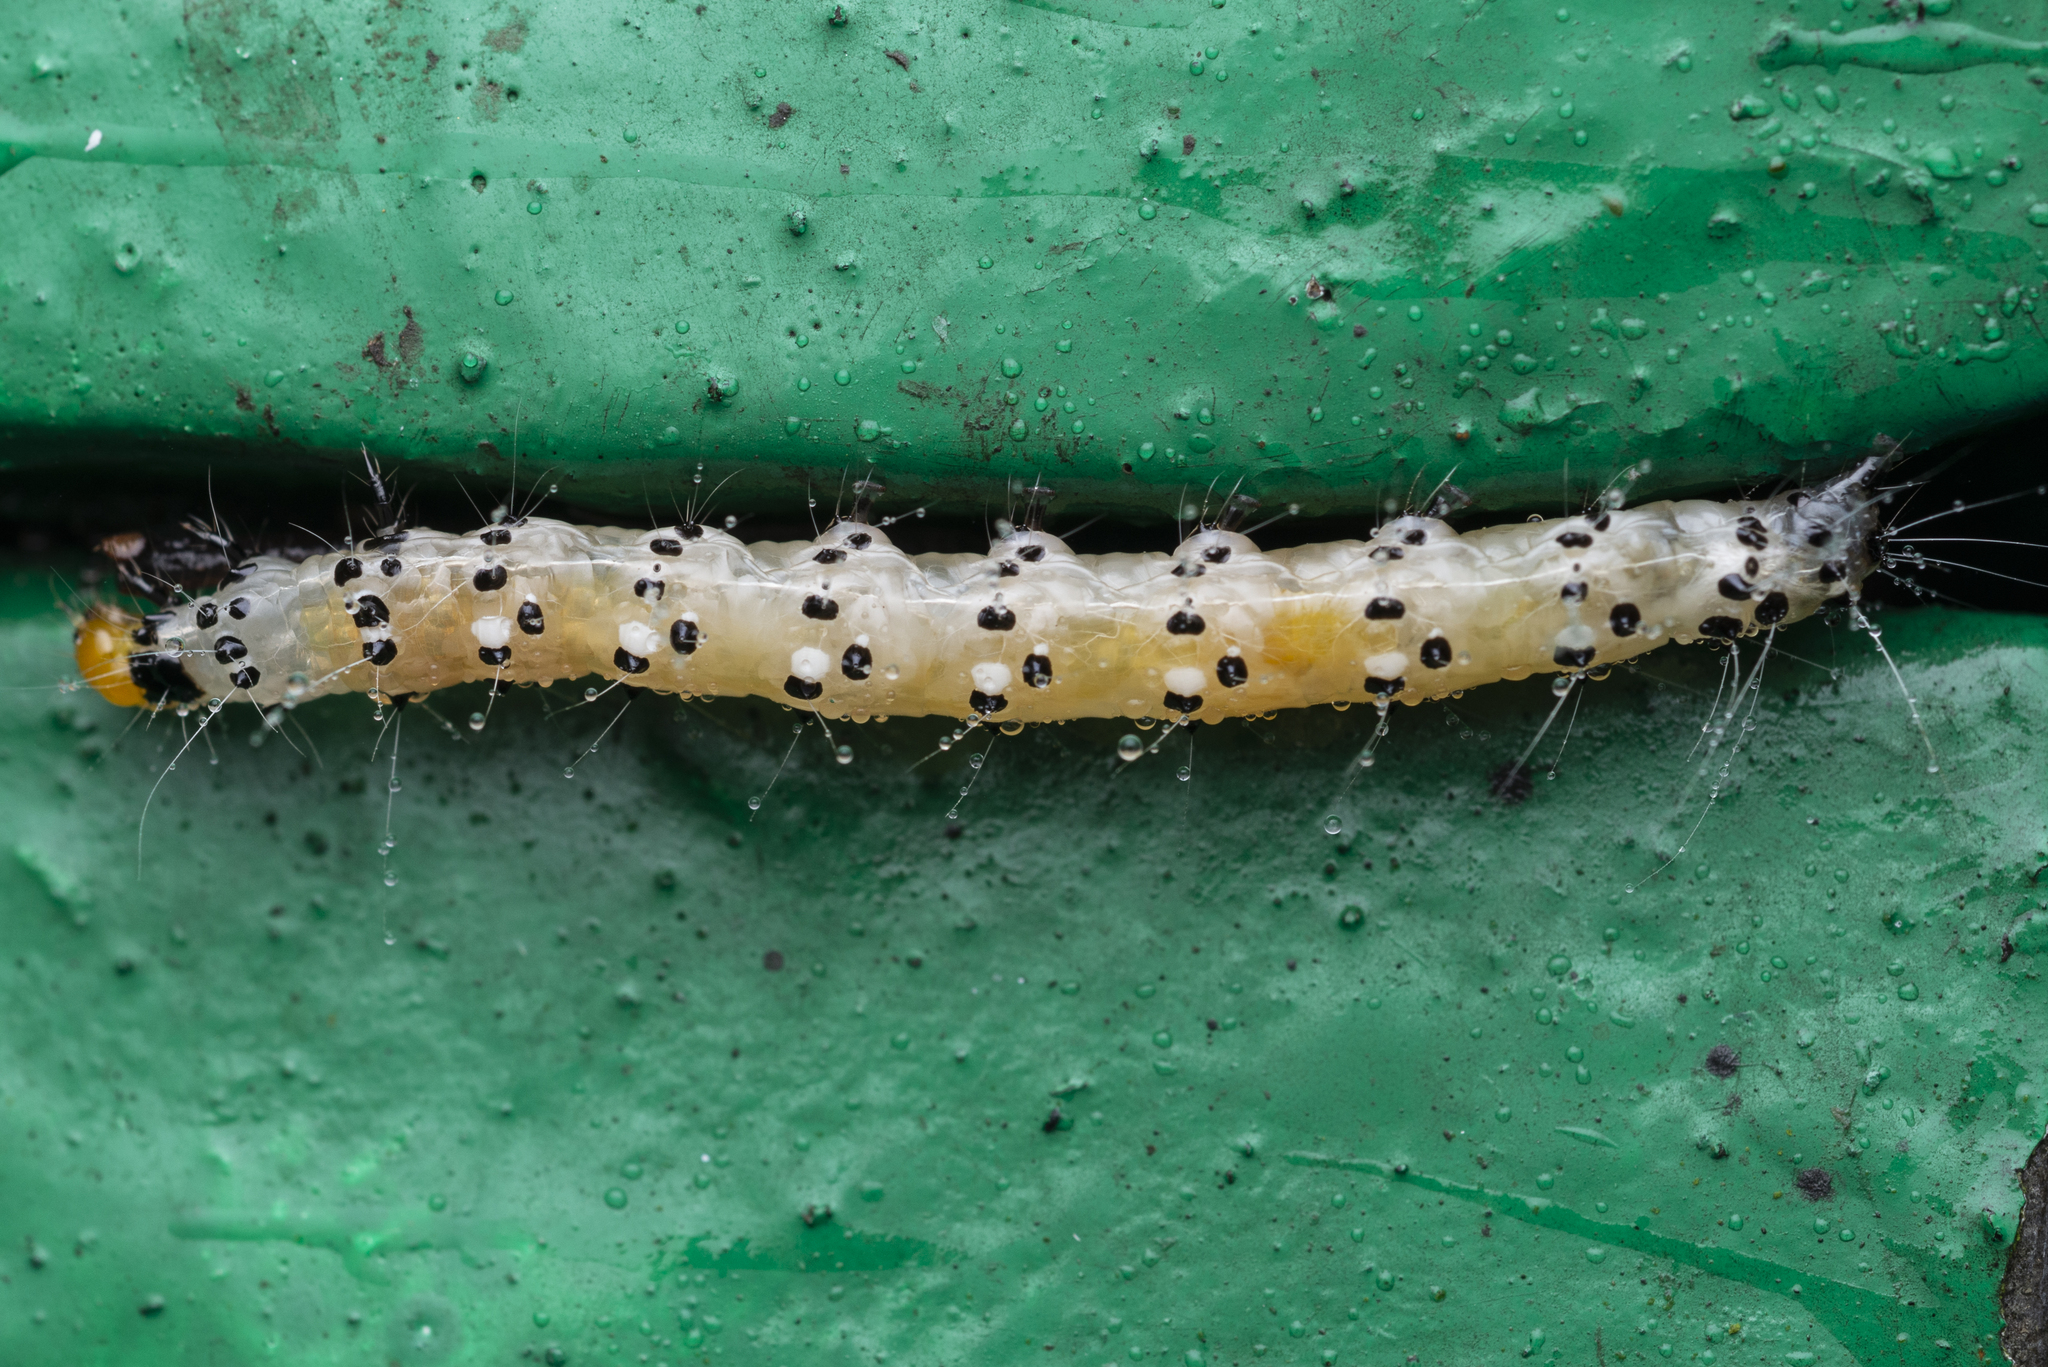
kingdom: Animalia
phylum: Arthropoda
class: Insecta
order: Lepidoptera
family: Crambidae
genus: Filodes
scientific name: Filodes fulvidorsalis
